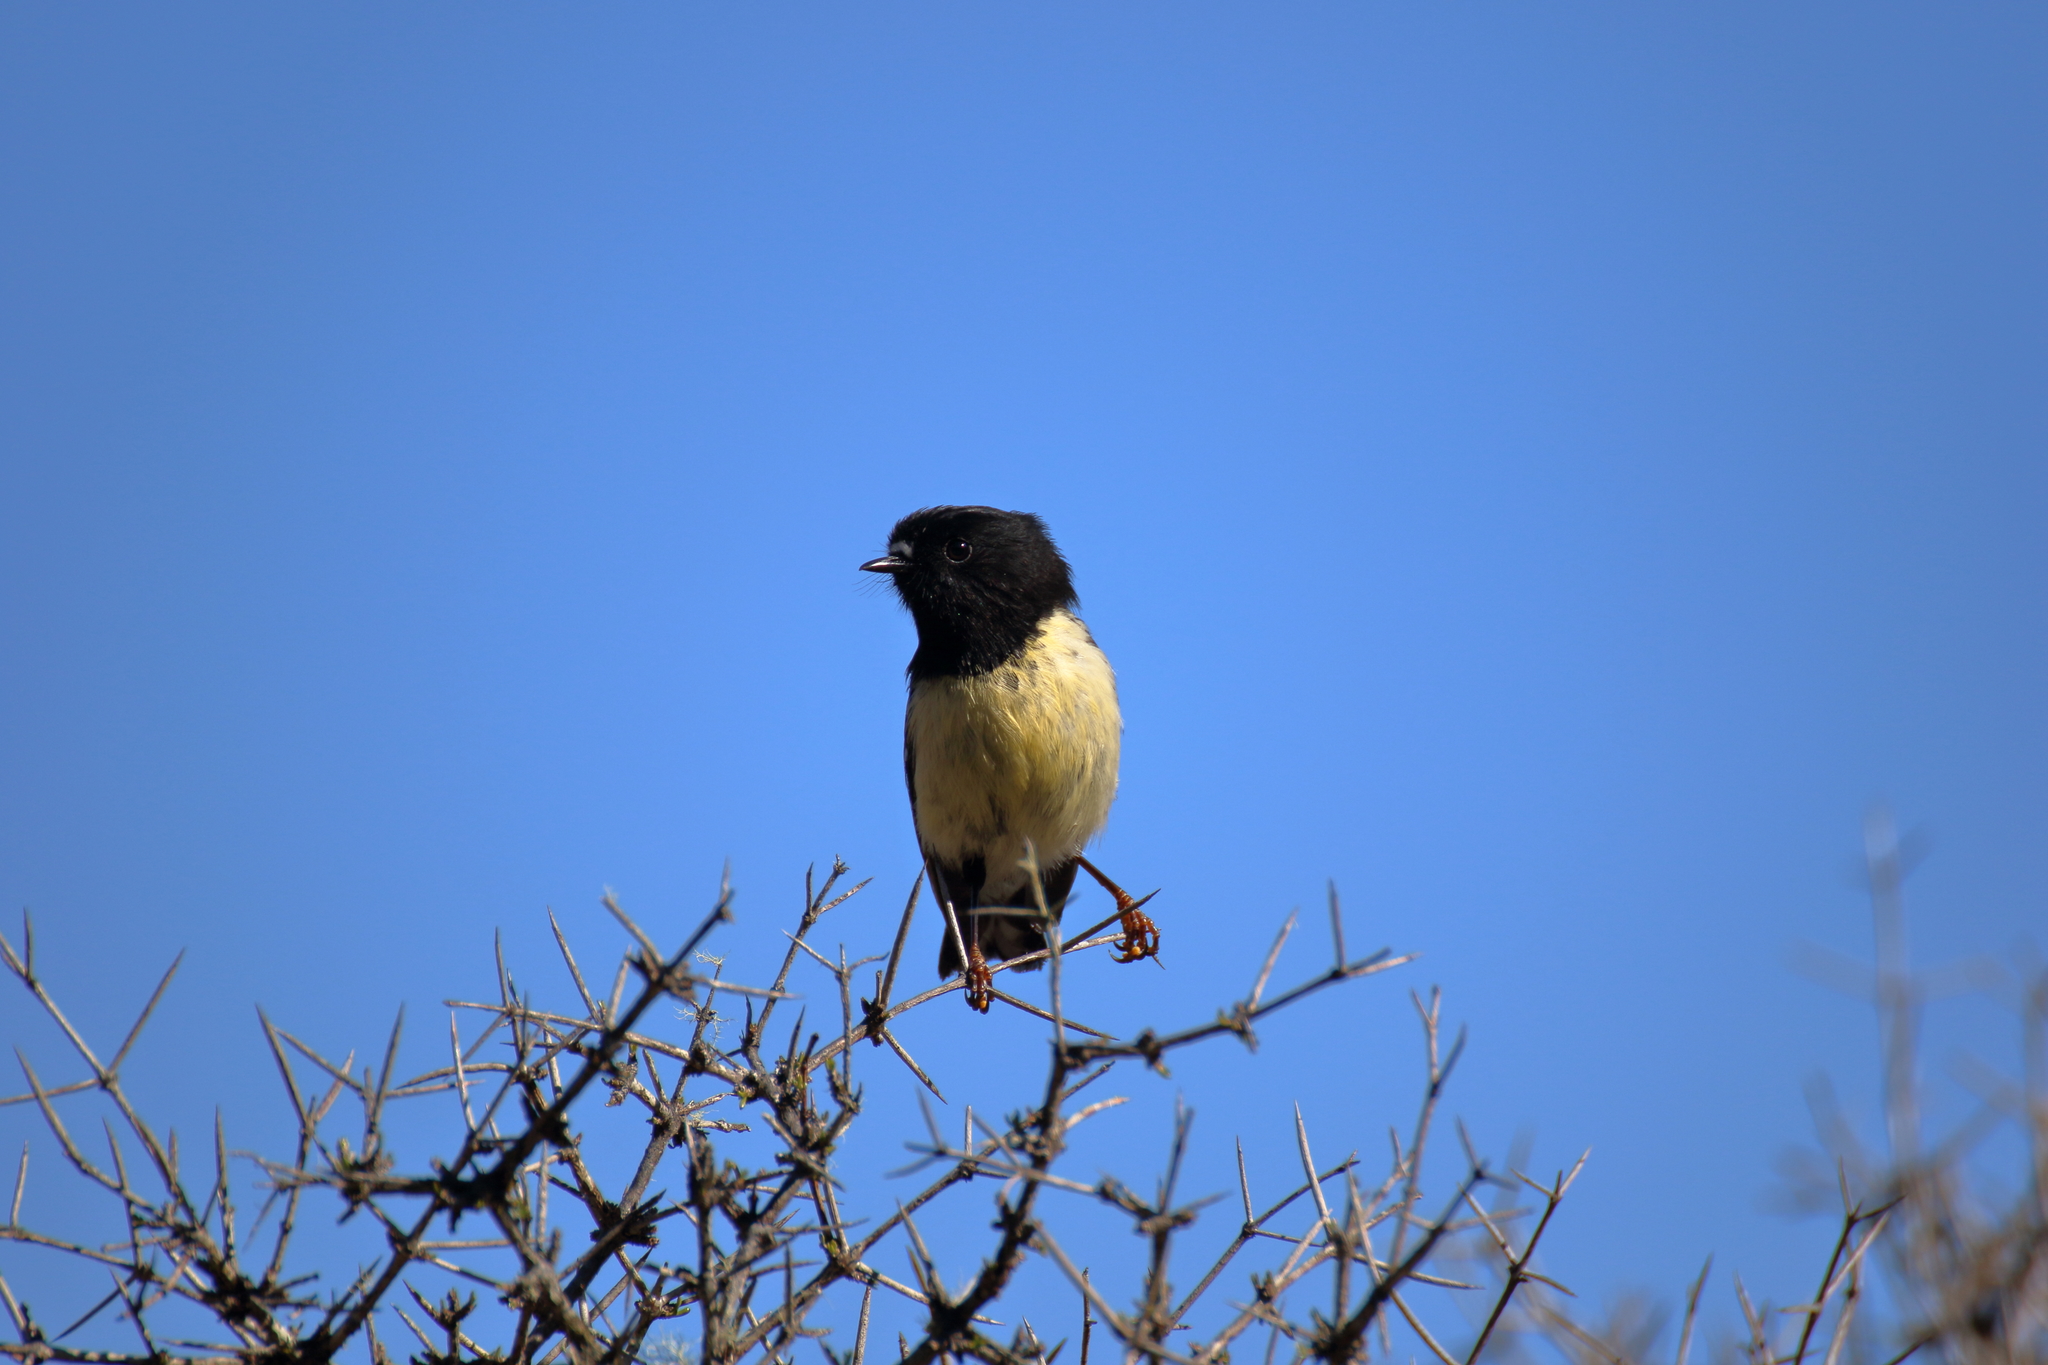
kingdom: Animalia
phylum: Chordata
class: Aves
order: Passeriformes
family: Petroicidae
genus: Petroica
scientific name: Petroica macrocephala
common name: Tomtit
